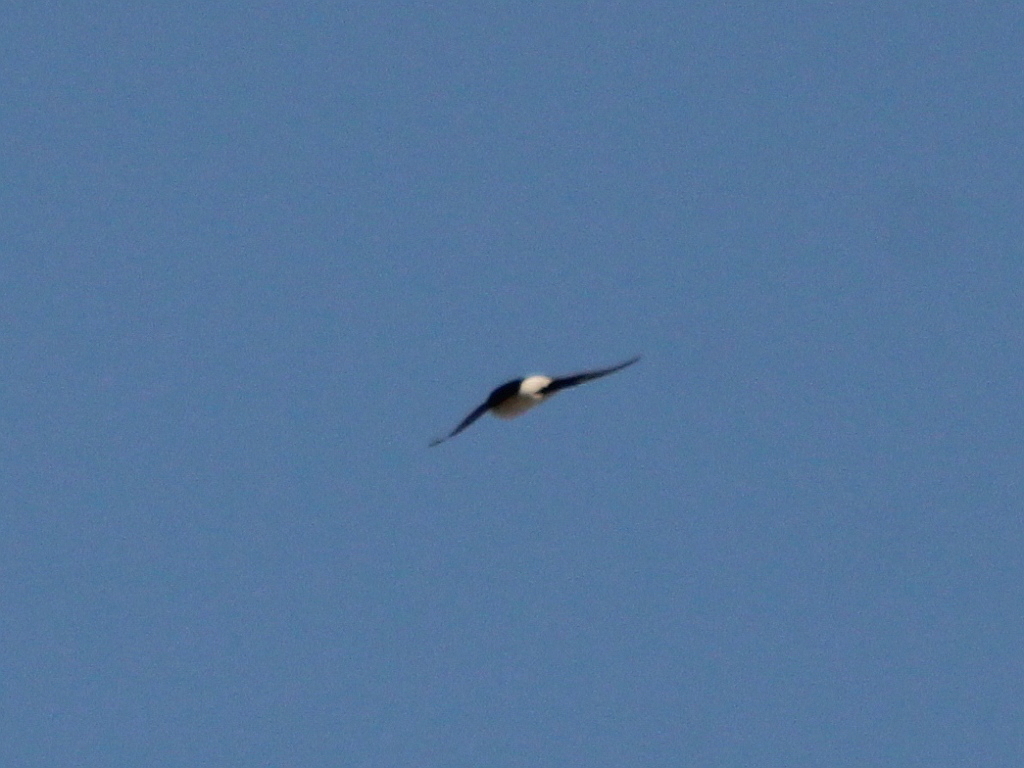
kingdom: Animalia
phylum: Chordata
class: Aves
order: Passeriformes
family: Hirundinidae
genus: Delichon
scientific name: Delichon urbicum
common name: Common house martin
